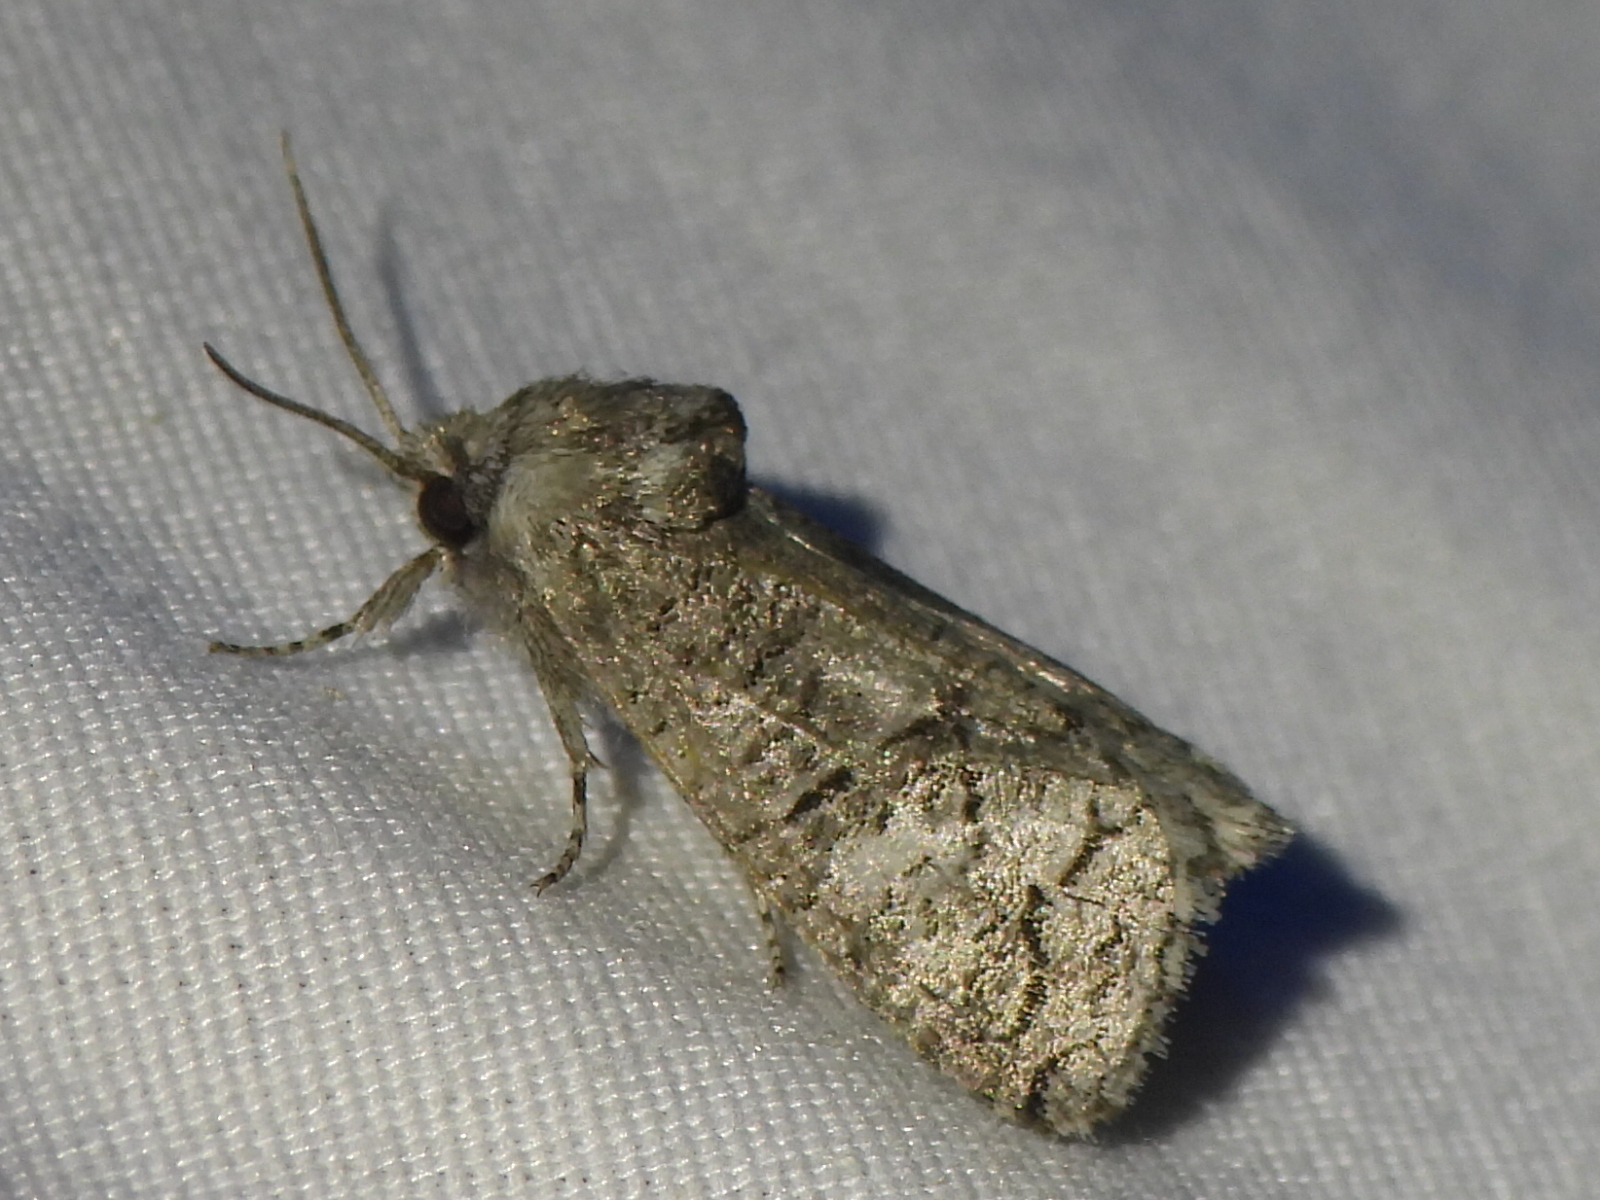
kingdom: Animalia
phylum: Arthropoda
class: Insecta
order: Lepidoptera
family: Cossidae
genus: Fania
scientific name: Fania nanus
